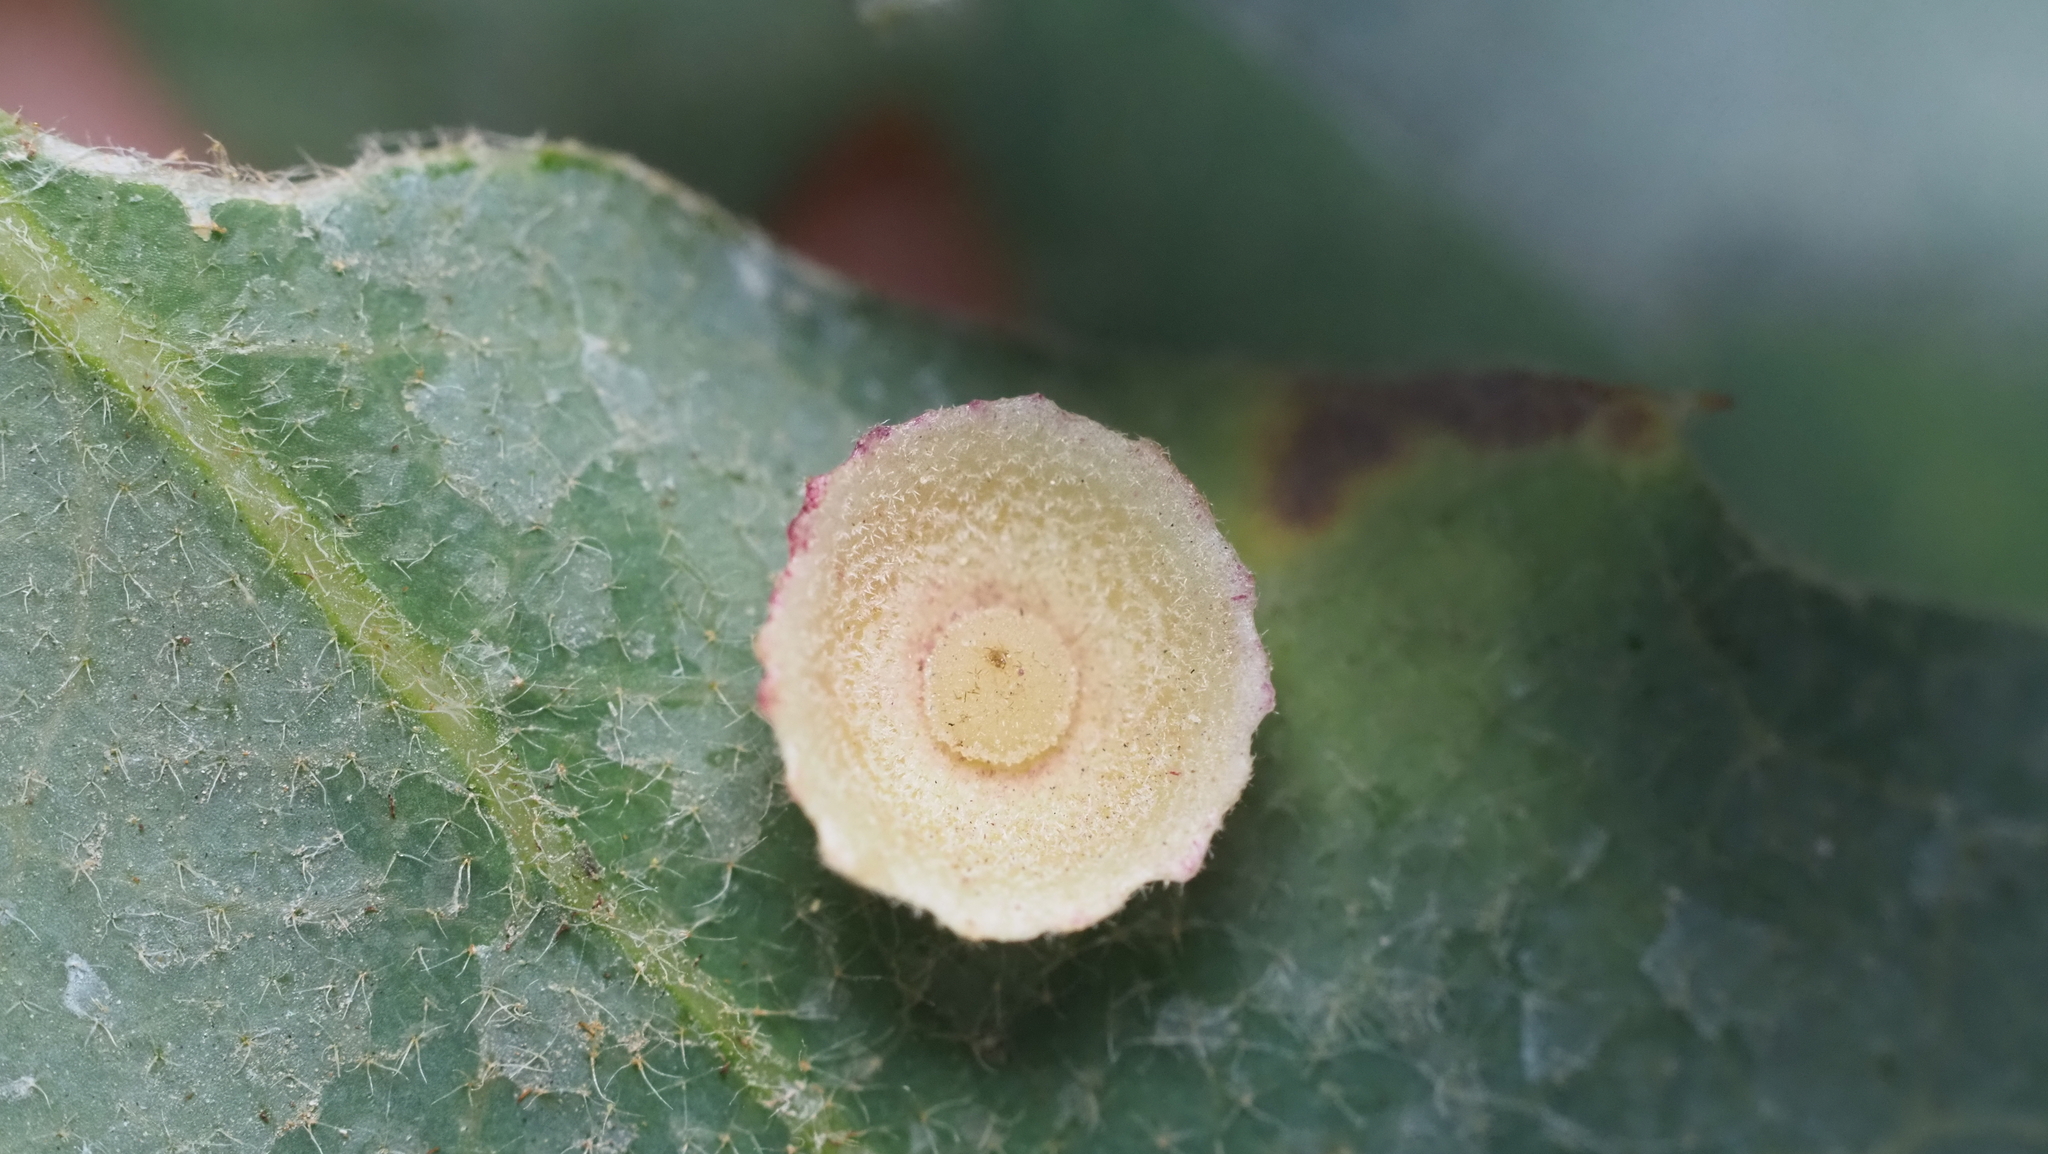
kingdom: Animalia
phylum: Arthropoda
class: Insecta
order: Hymenoptera
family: Cynipidae
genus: Andricus
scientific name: Andricus
